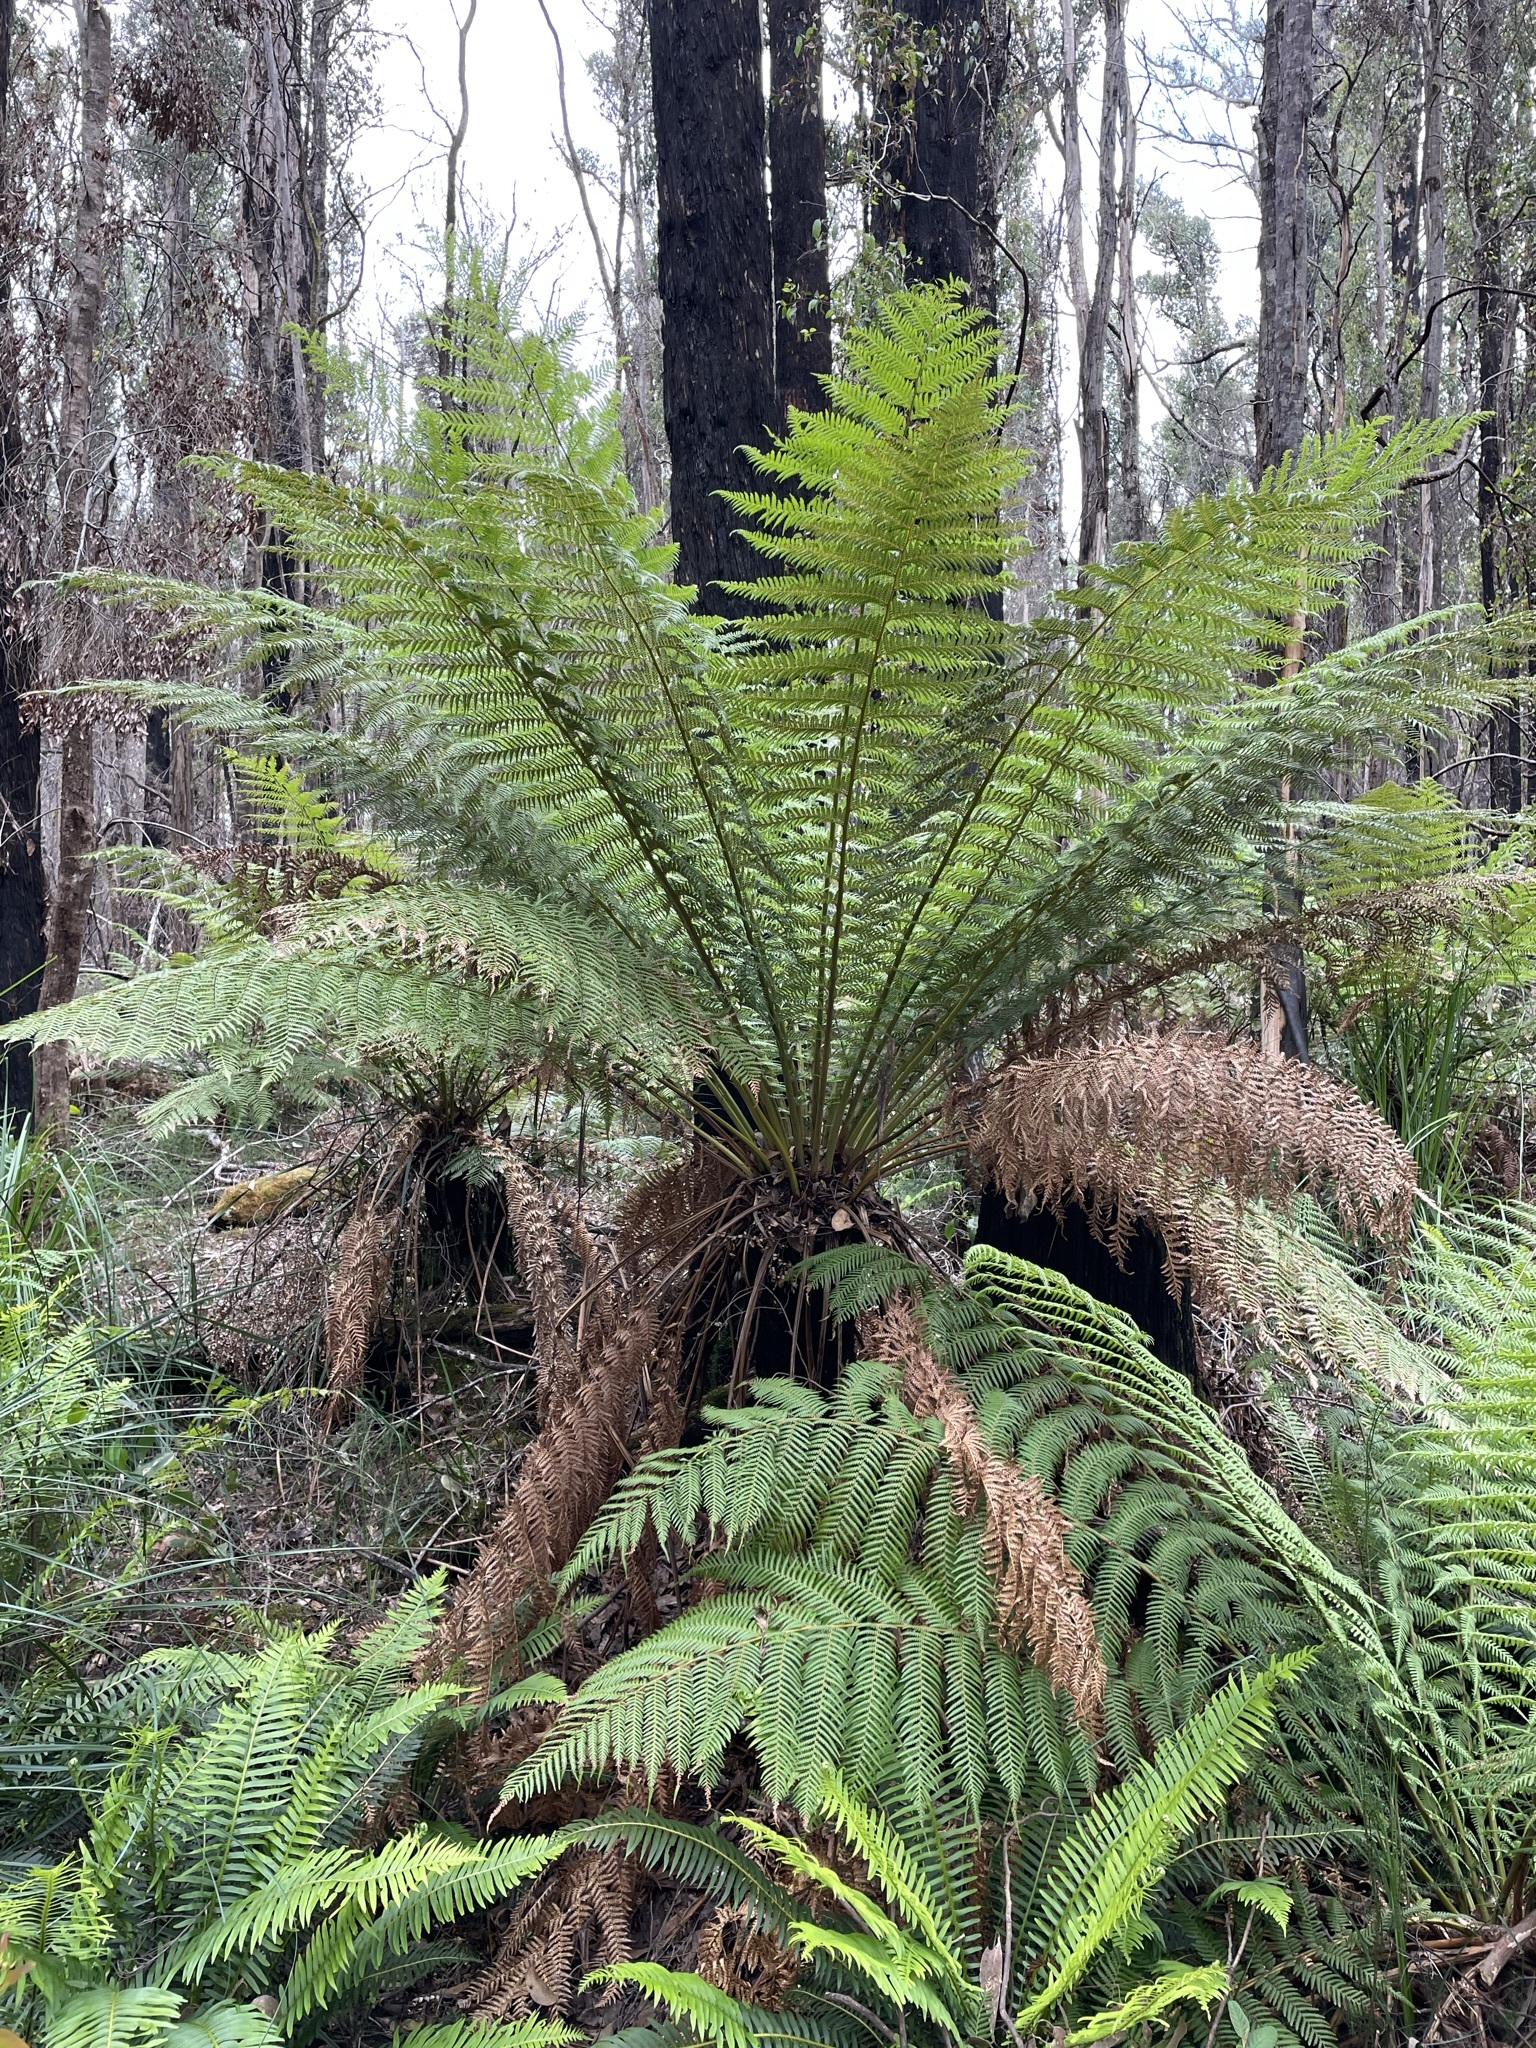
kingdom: Plantae
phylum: Tracheophyta
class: Polypodiopsida
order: Cyatheales
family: Dicksoniaceae
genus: Dicksonia
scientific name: Dicksonia antarctica
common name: Australian treefern
